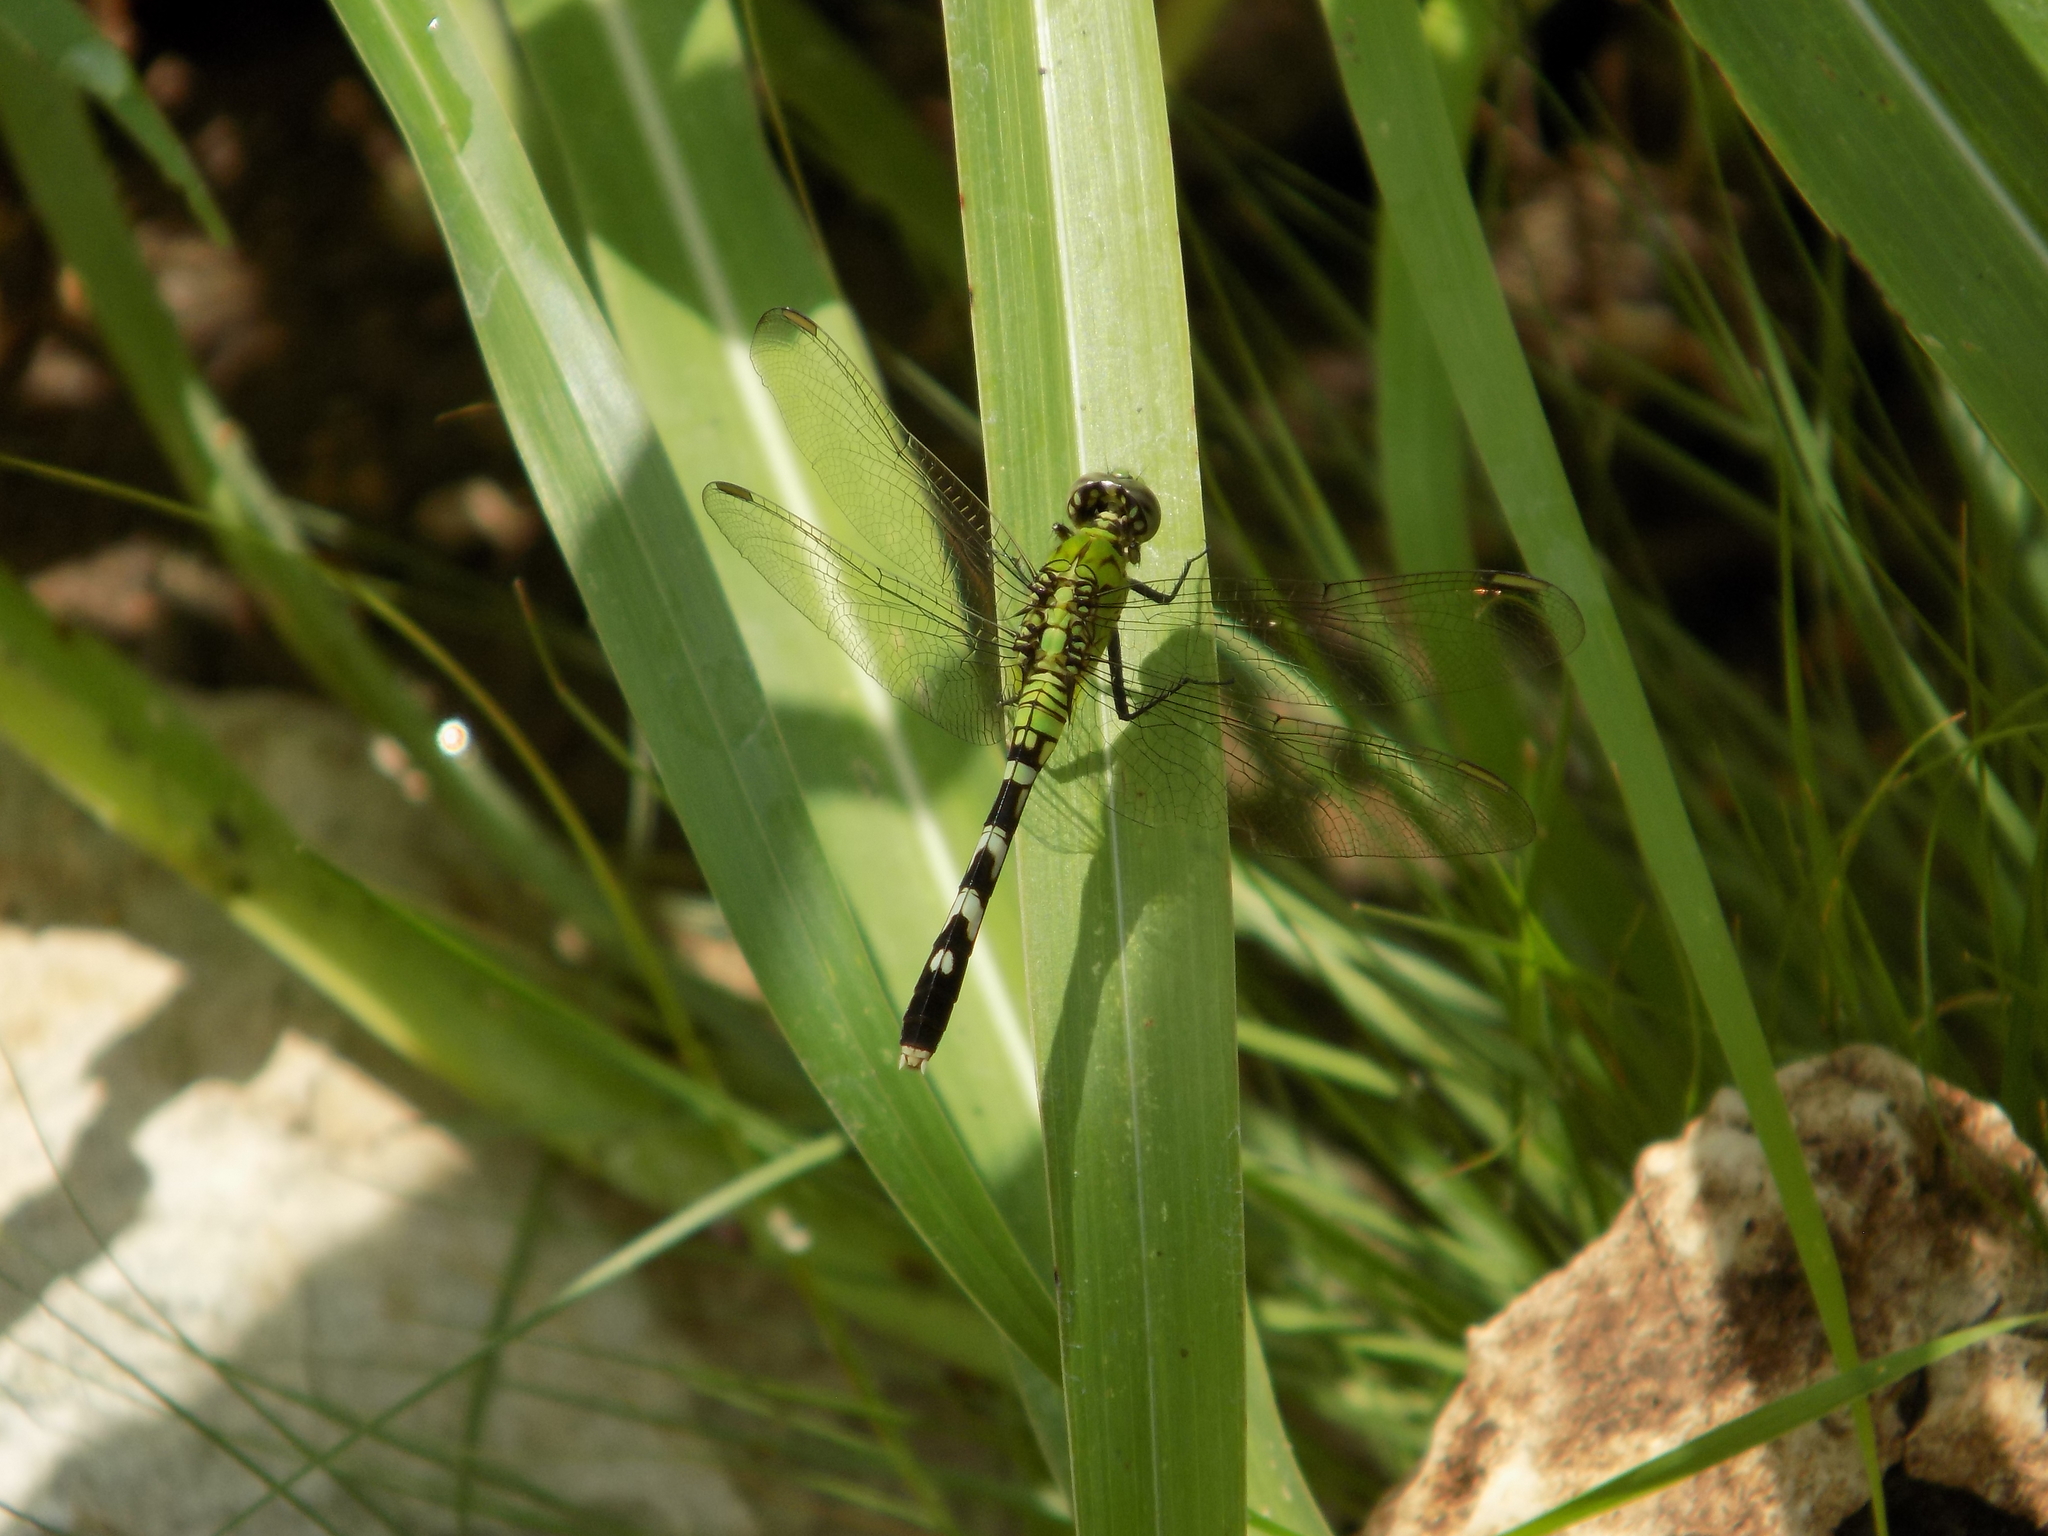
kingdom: Animalia
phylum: Arthropoda
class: Insecta
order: Odonata
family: Libellulidae
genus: Erythemis
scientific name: Erythemis simplicicollis
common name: Eastern pondhawk
